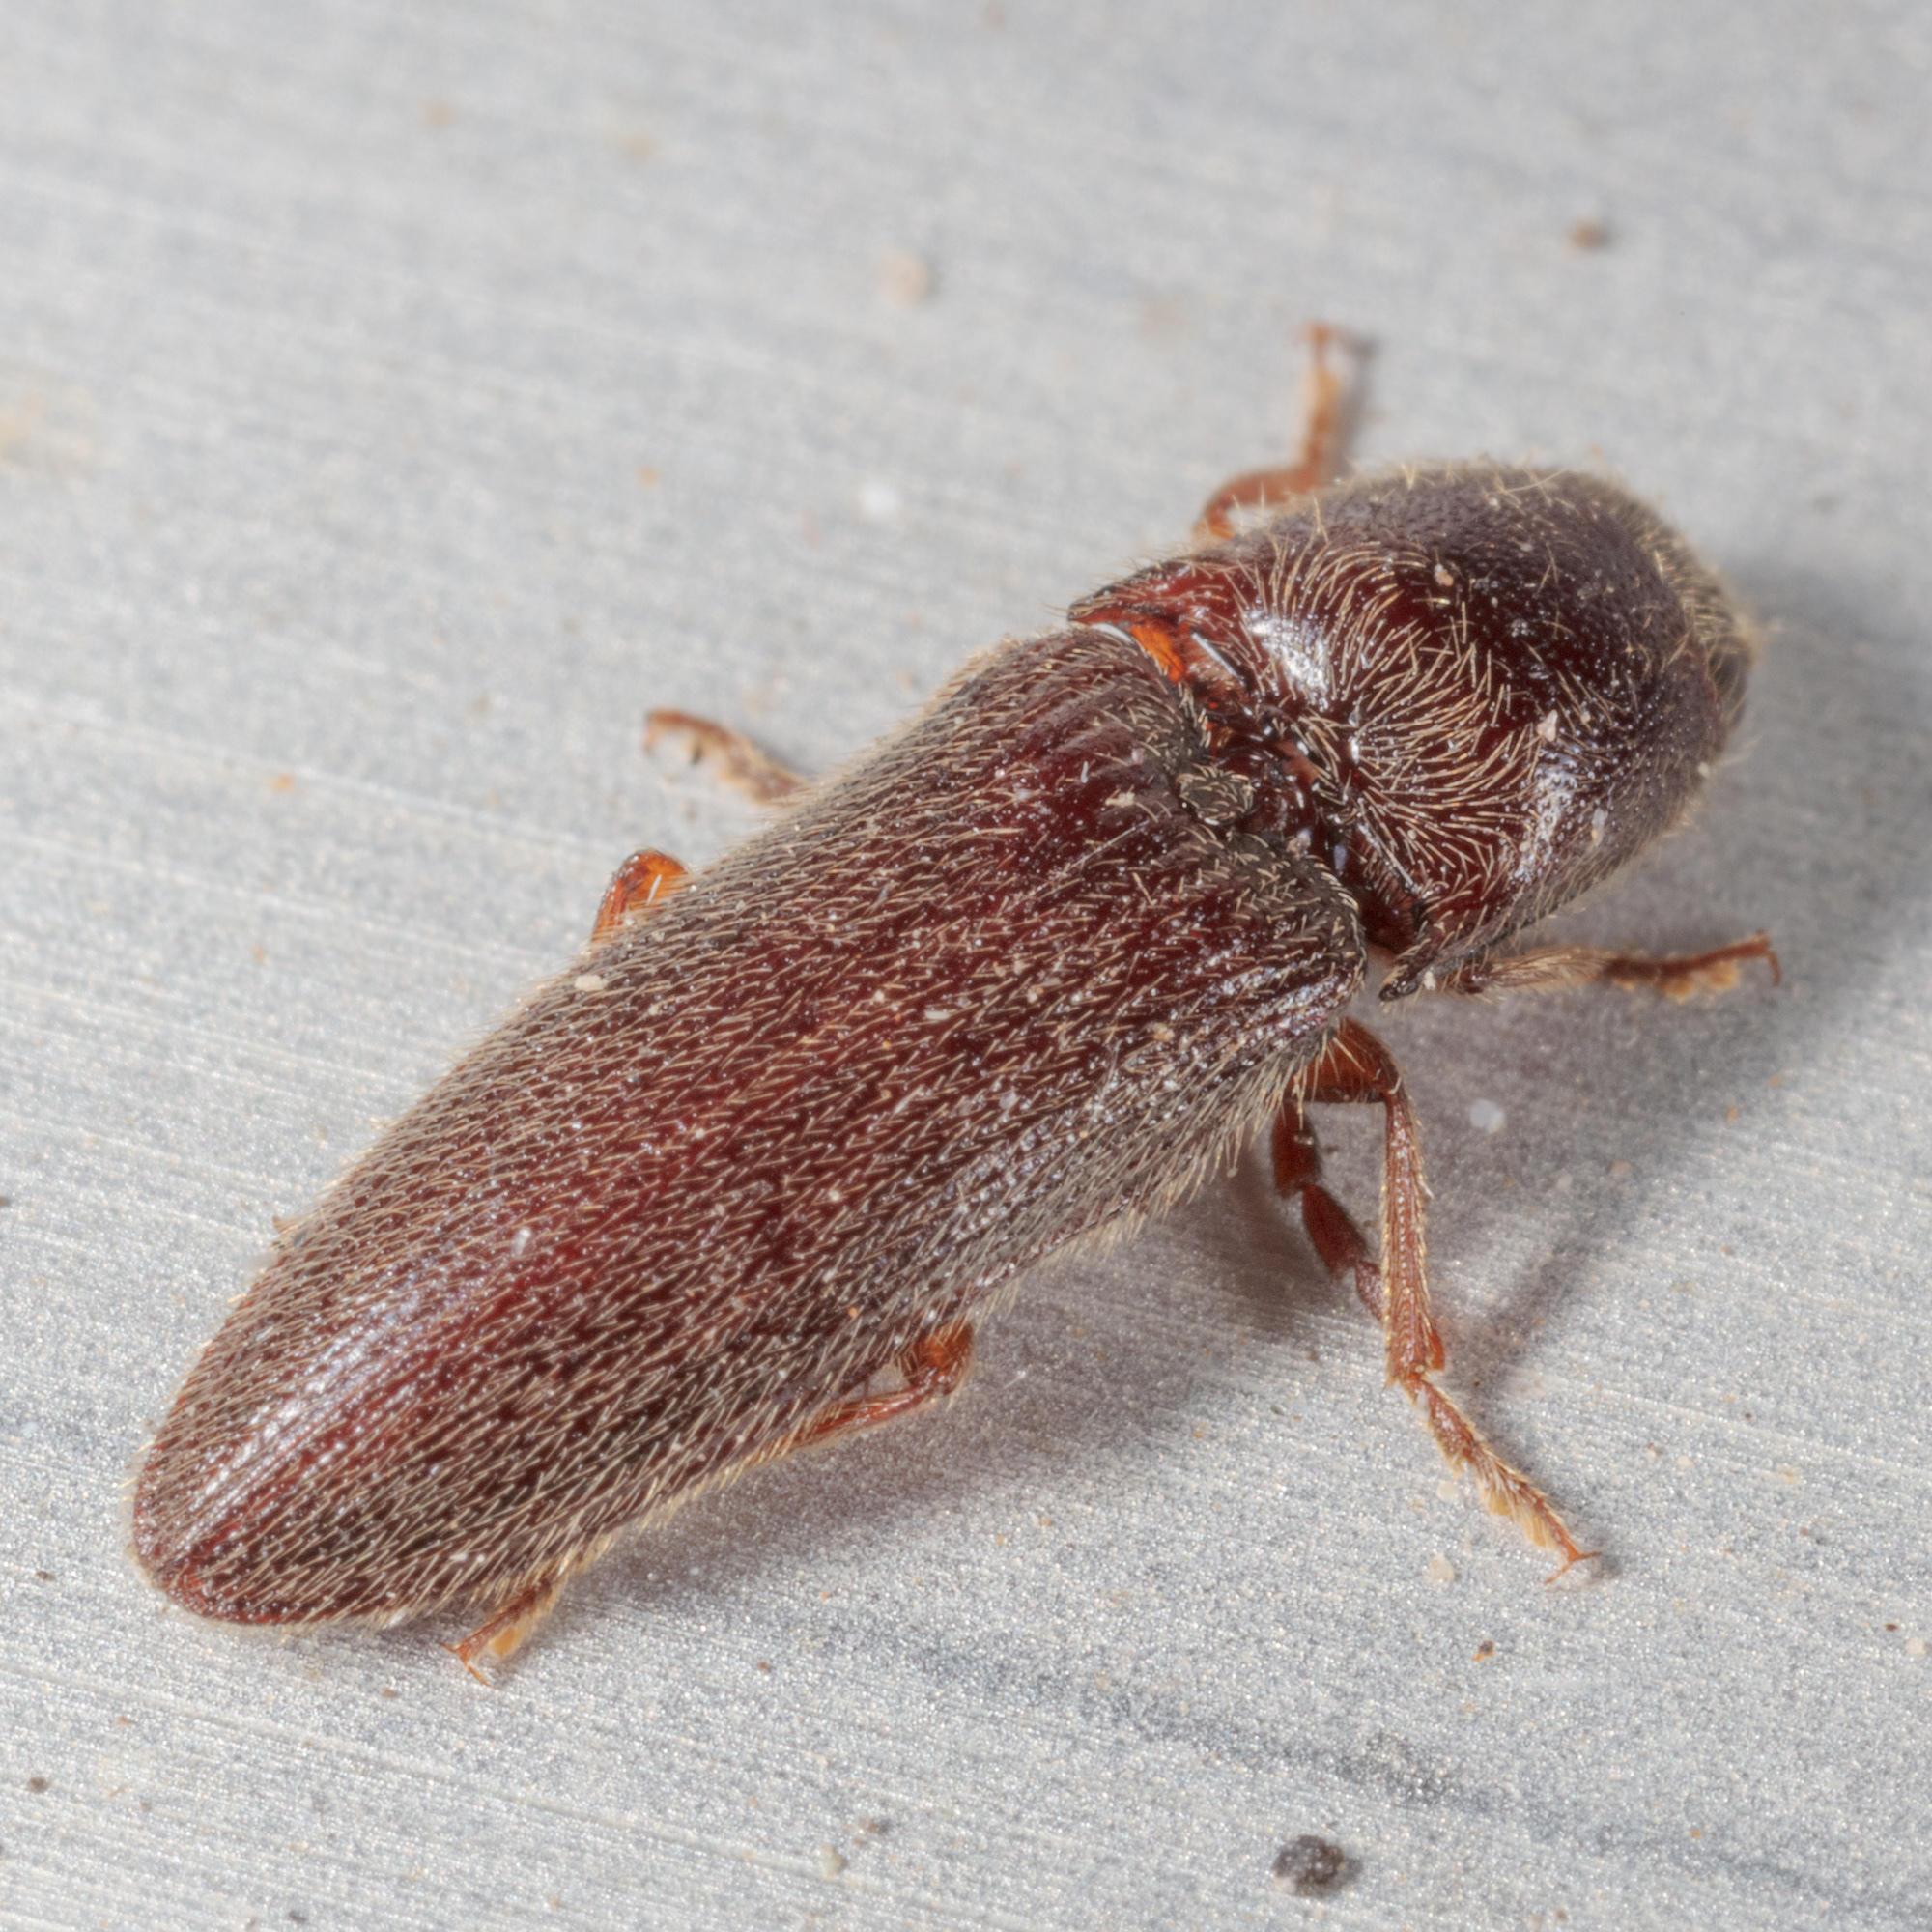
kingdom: Animalia
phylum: Arthropoda
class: Insecta
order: Coleoptera
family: Elateridae
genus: Dipropus
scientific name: Dipropus
